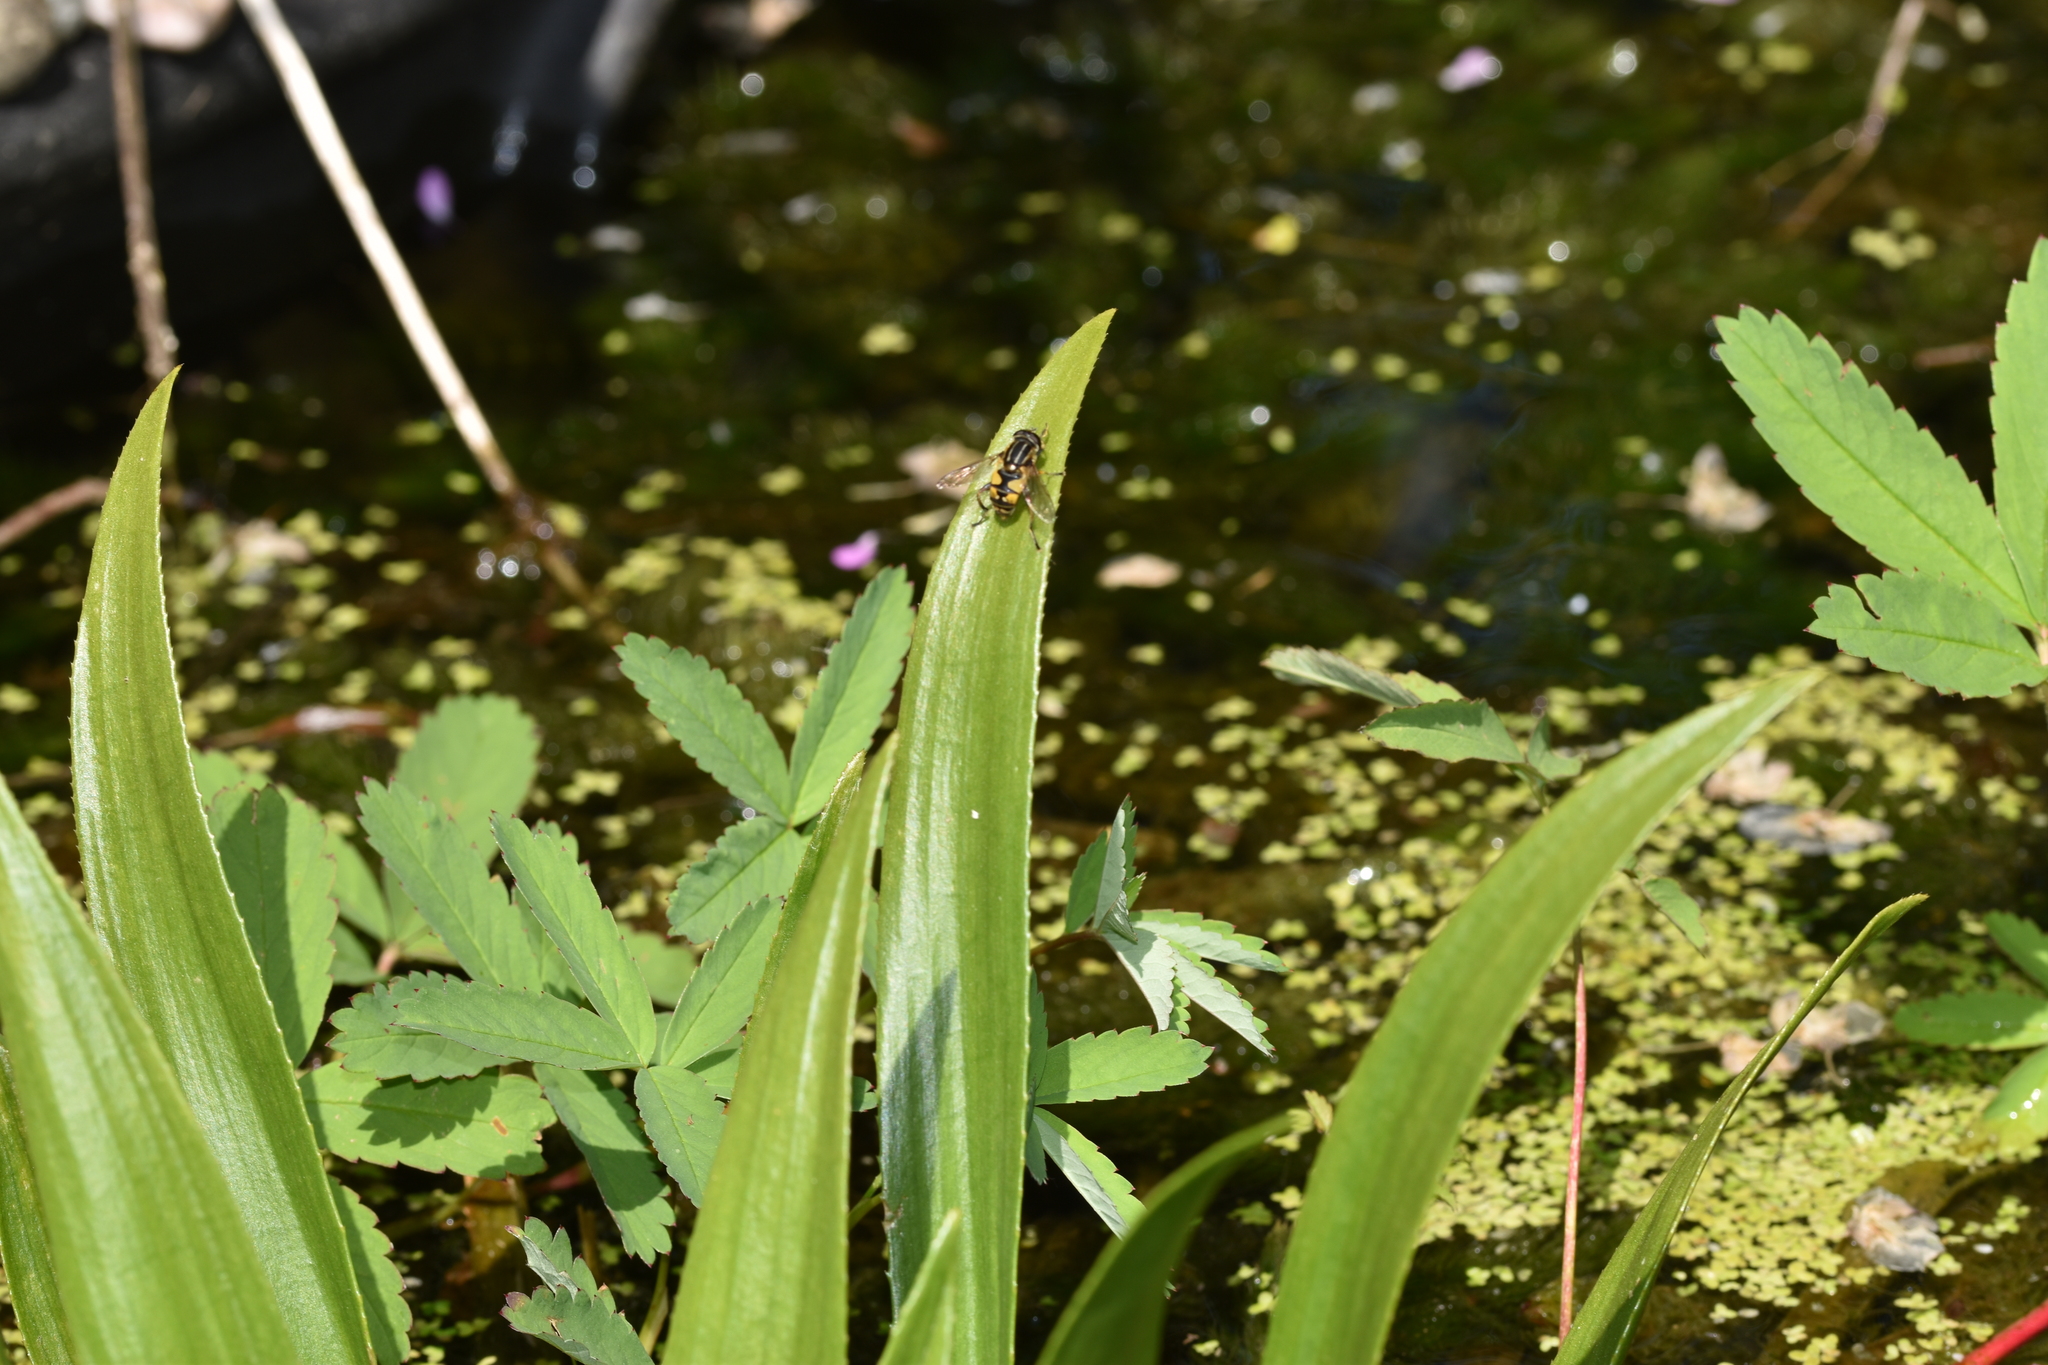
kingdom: Animalia
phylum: Arthropoda
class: Insecta
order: Diptera
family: Syrphidae
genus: Helophilus
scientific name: Helophilus pendulus
